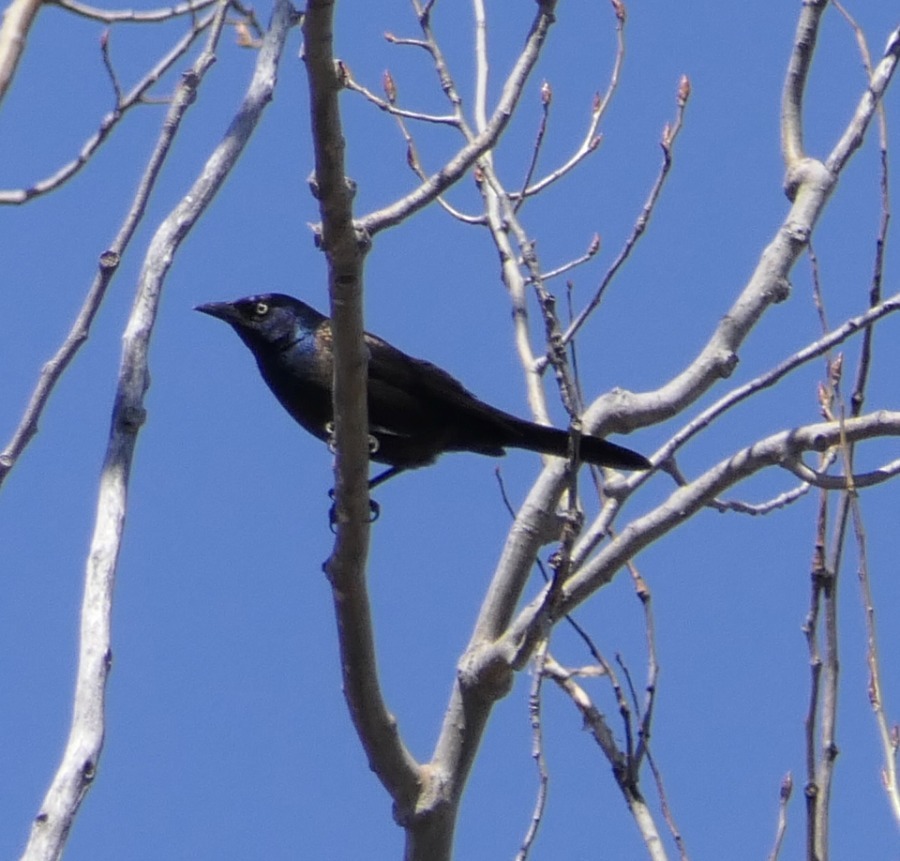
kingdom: Animalia
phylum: Chordata
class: Aves
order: Passeriformes
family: Icteridae
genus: Quiscalus
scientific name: Quiscalus quiscula
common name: Common grackle
